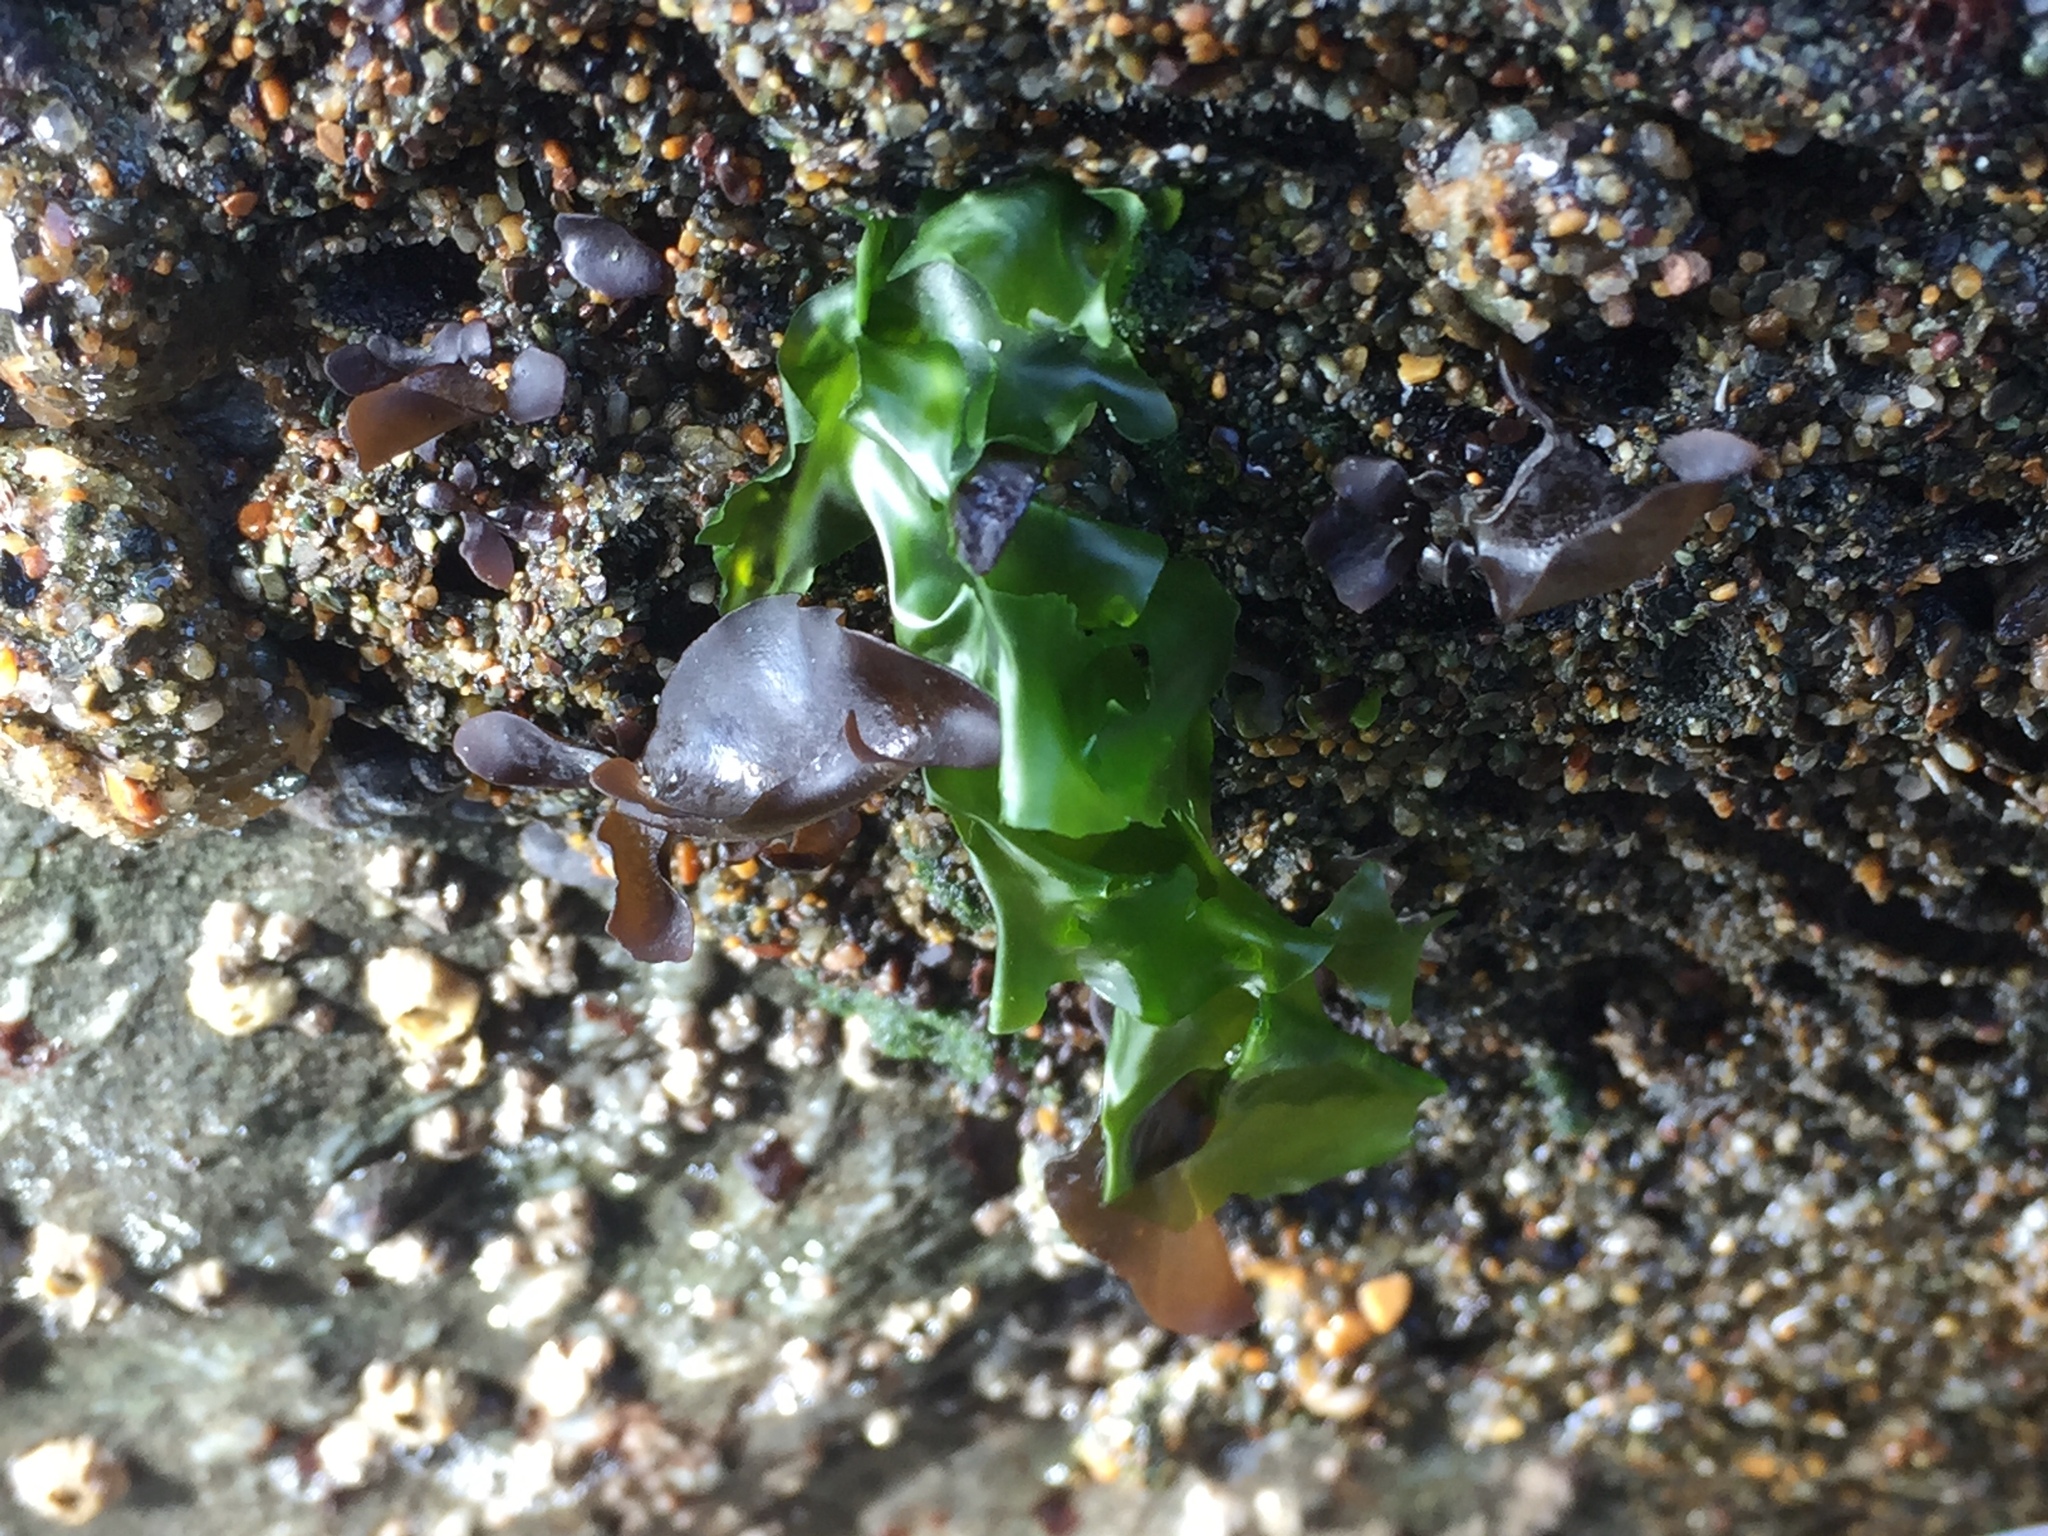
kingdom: Plantae
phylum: Chlorophyta
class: Ulvophyceae
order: Ulvales
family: Ulvaceae
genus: Ulva
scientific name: Ulva
